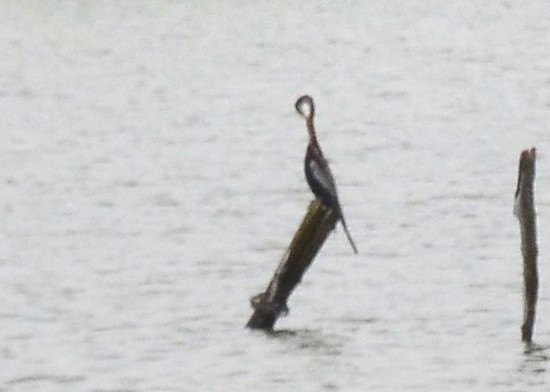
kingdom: Animalia
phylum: Chordata
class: Aves
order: Suliformes
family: Anhingidae
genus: Anhinga
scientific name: Anhinga melanogaster
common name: Oriental darter
